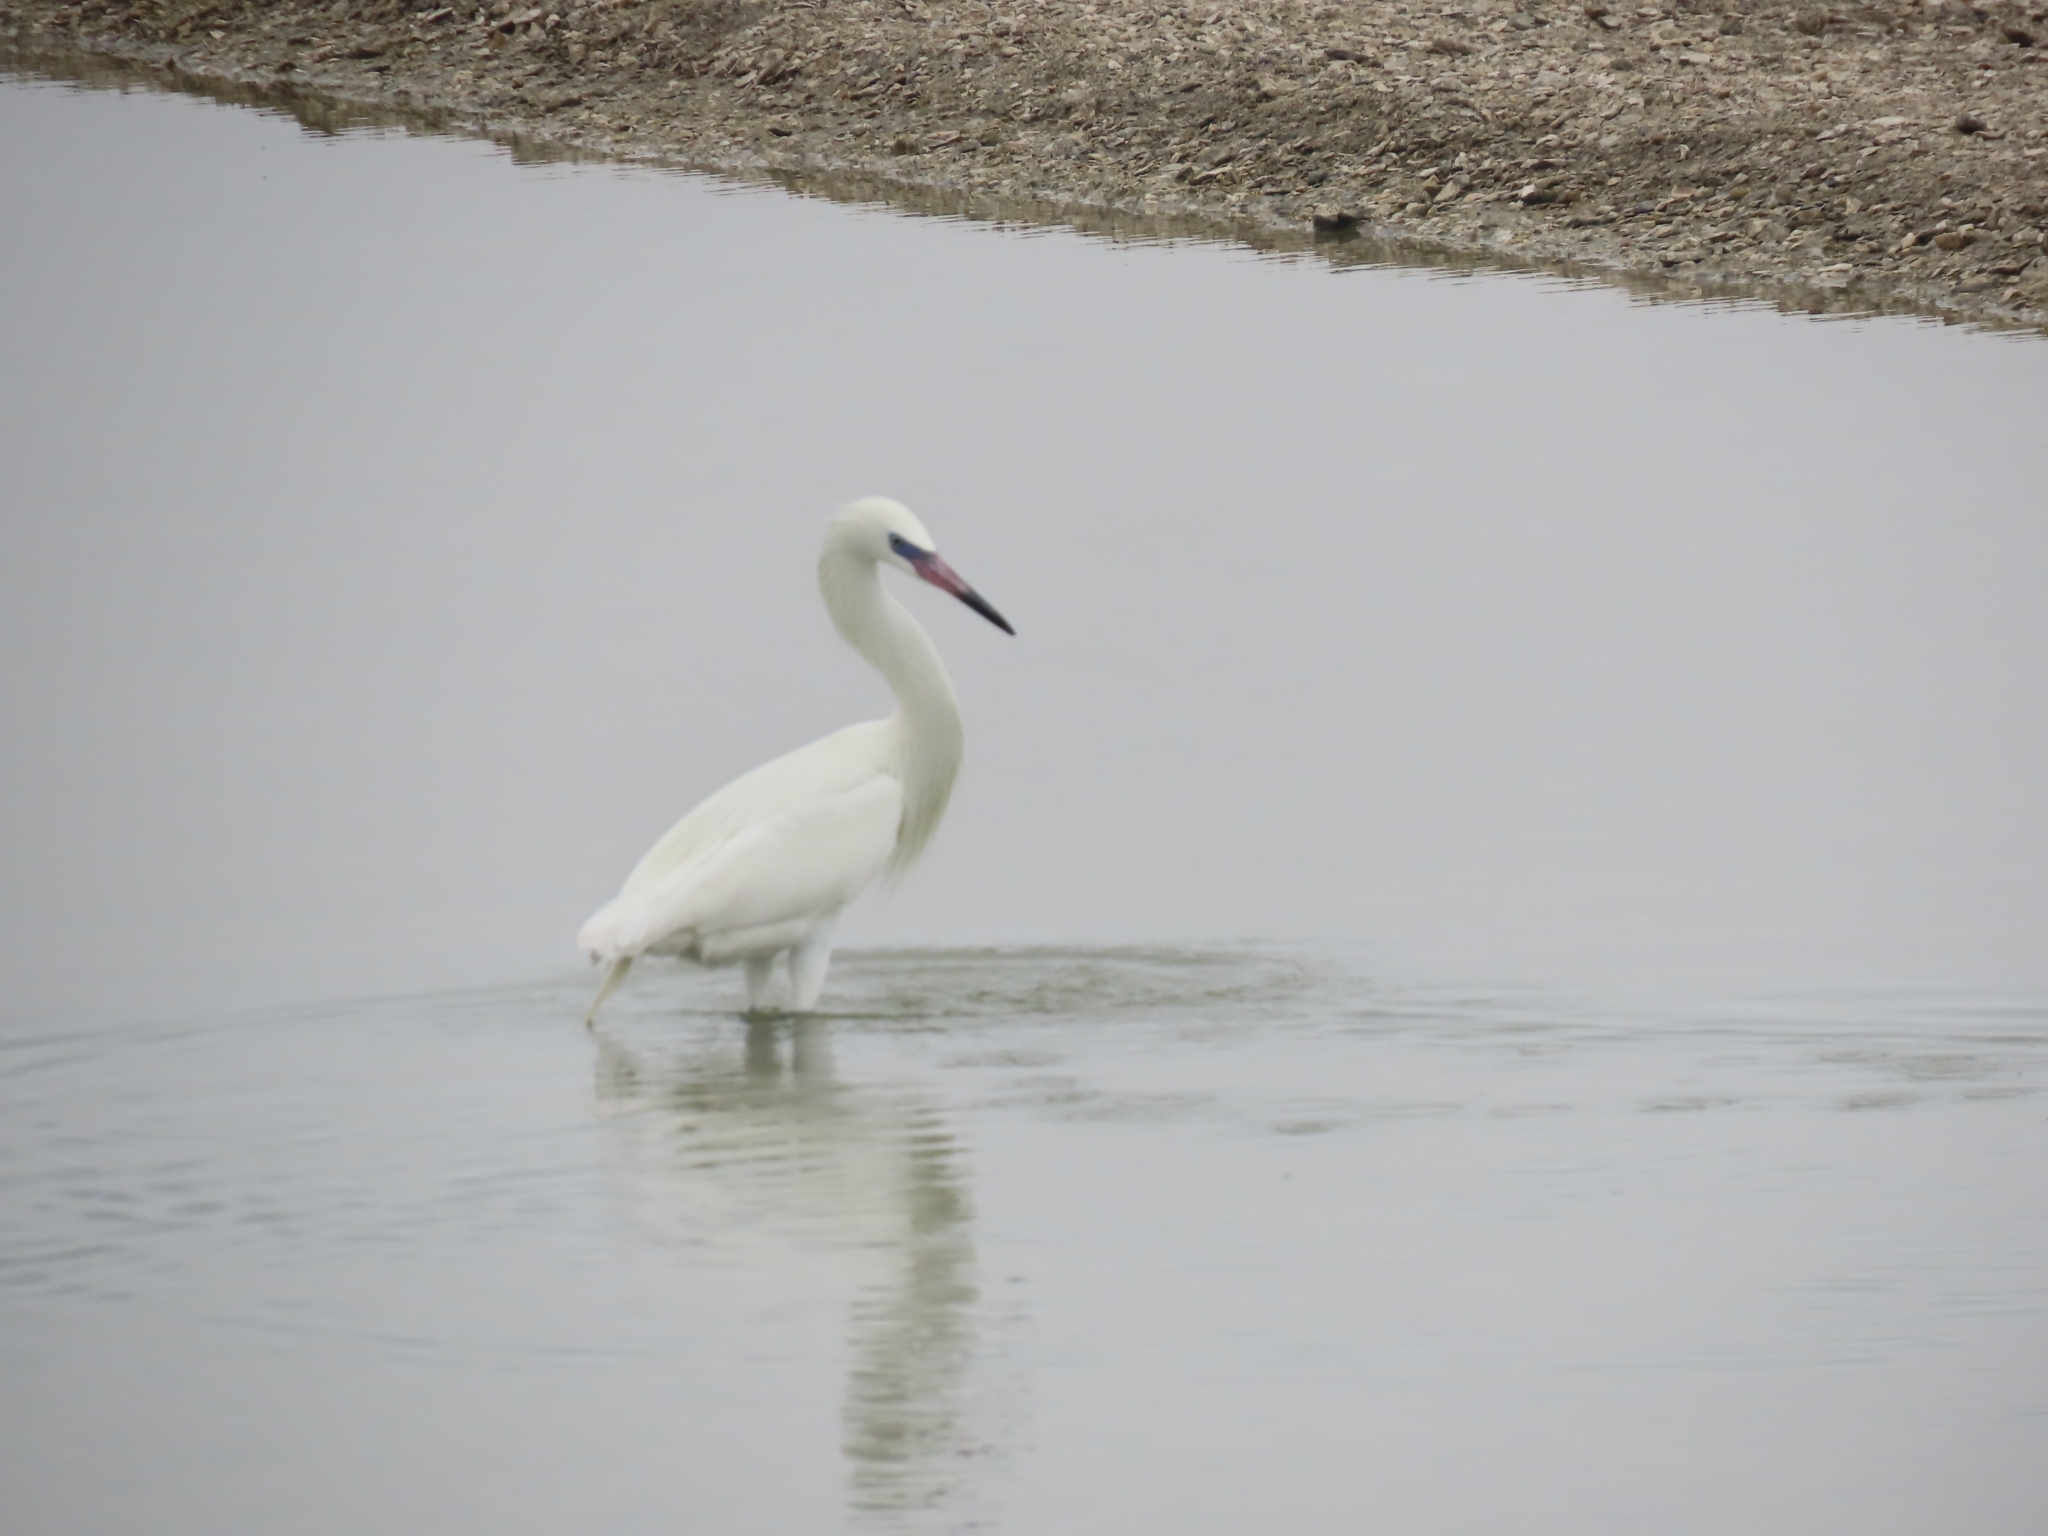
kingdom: Animalia
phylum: Chordata
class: Aves
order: Pelecaniformes
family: Ardeidae
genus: Egretta
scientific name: Egretta rufescens
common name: Reddish egret
